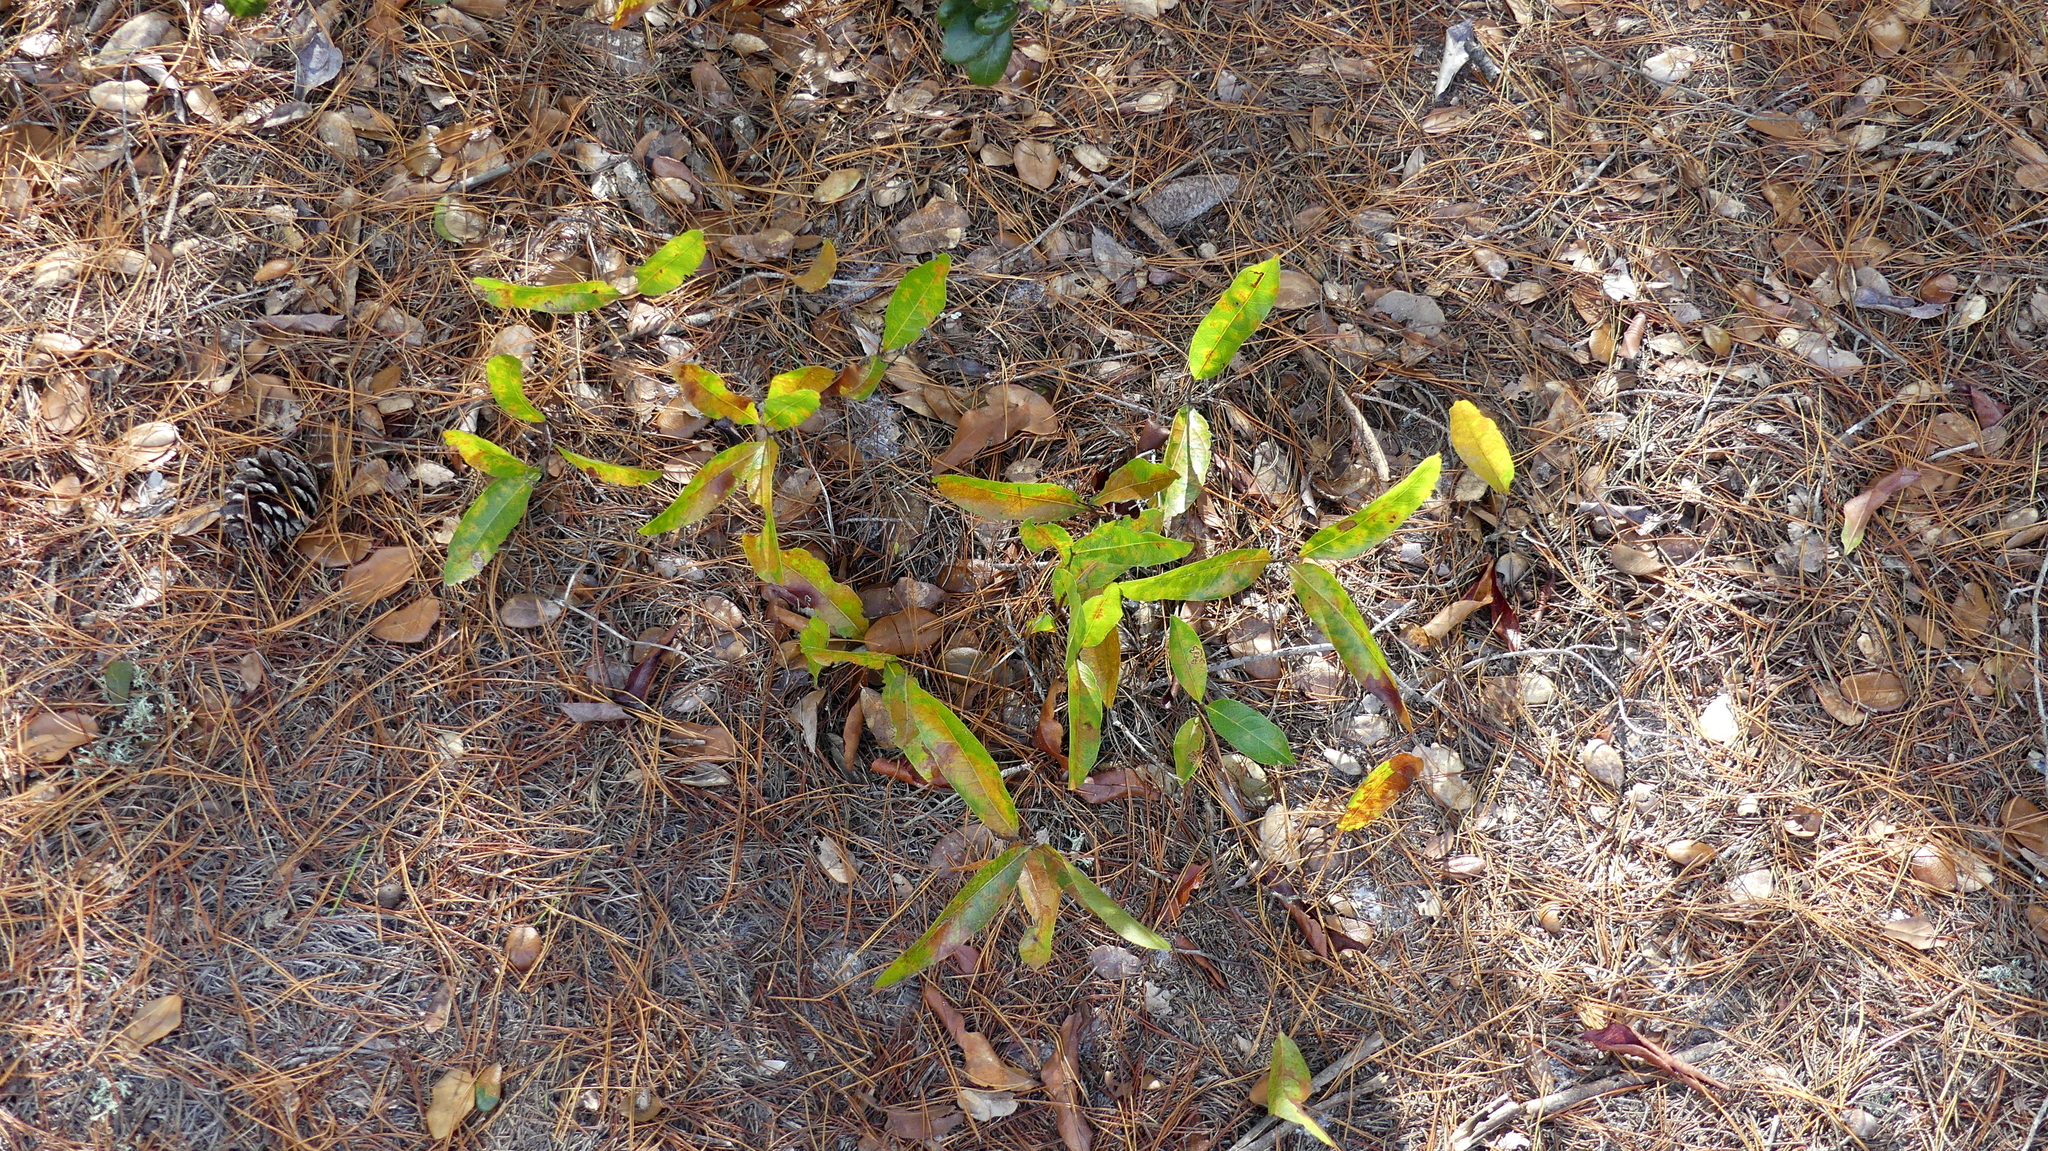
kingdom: Plantae
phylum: Tracheophyta
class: Magnoliopsida
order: Malpighiales
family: Chrysobalanaceae
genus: Geobalanus
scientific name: Geobalanus oblongifolius
